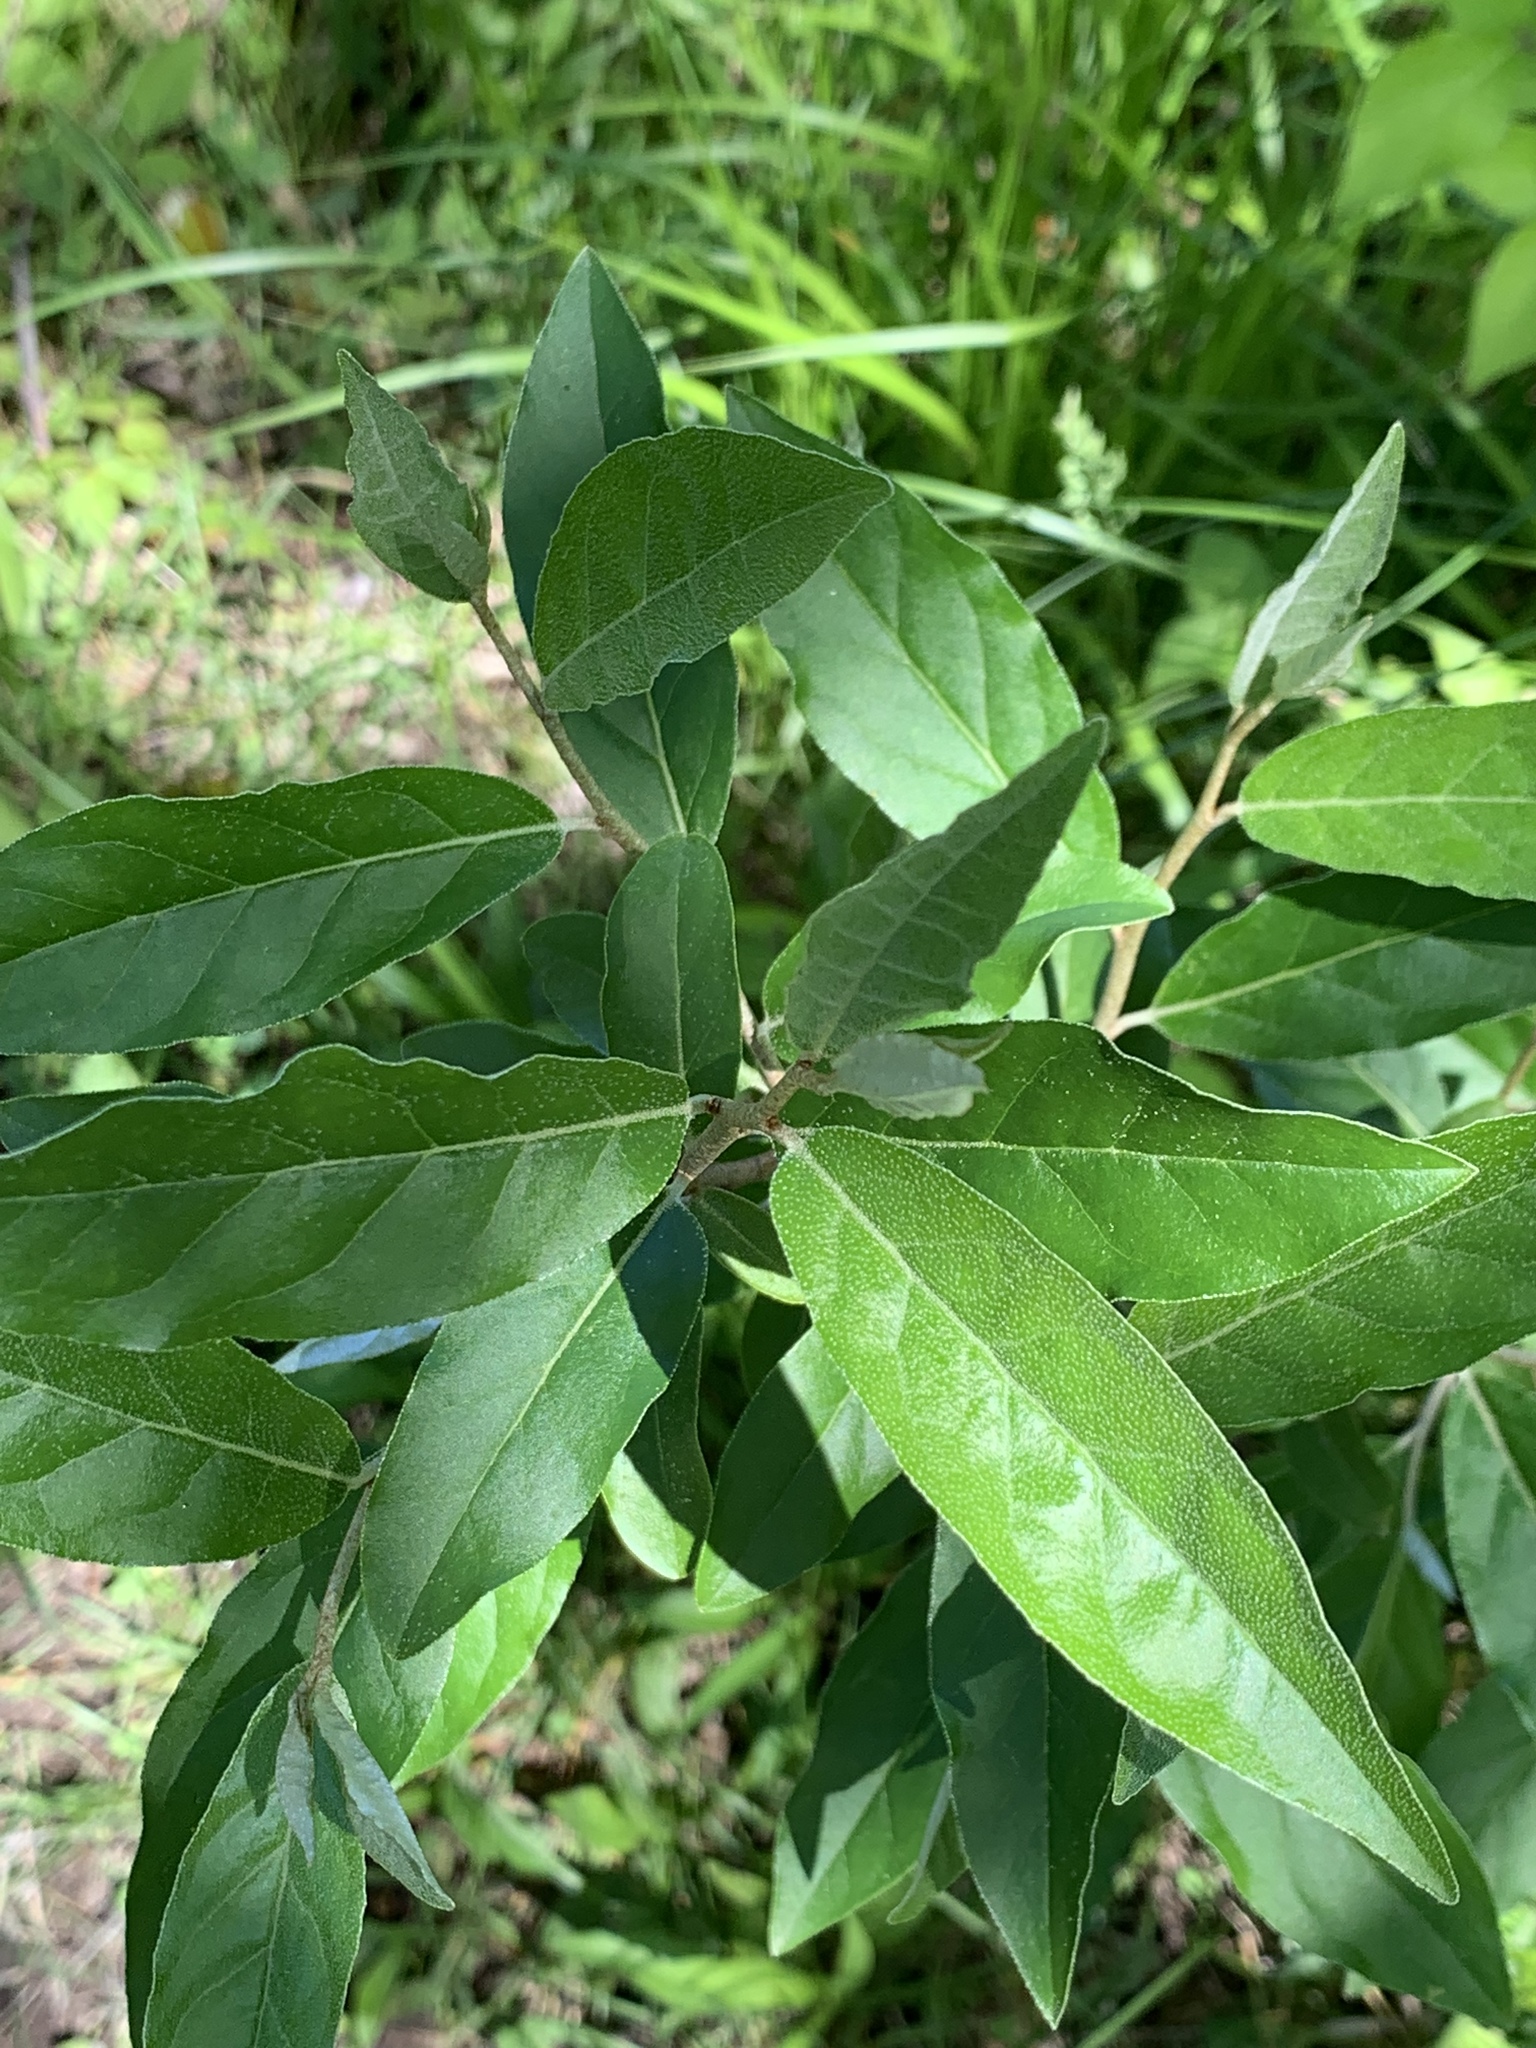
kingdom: Plantae
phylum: Tracheophyta
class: Magnoliopsida
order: Rosales
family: Elaeagnaceae
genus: Elaeagnus
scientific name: Elaeagnus umbellata
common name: Autumn olive
